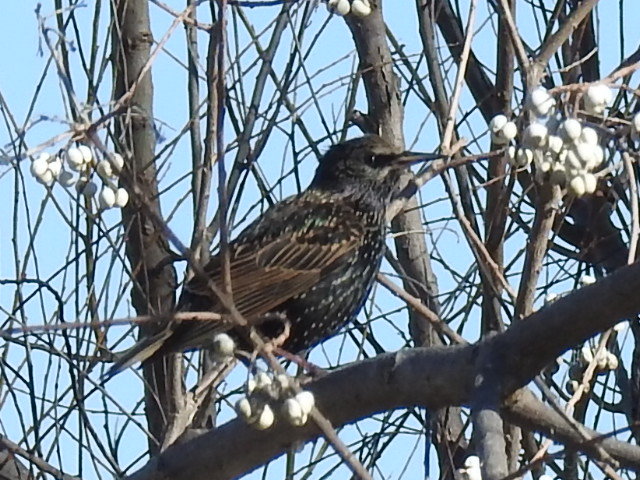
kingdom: Animalia
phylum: Chordata
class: Aves
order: Passeriformes
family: Sturnidae
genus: Sturnus
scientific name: Sturnus vulgaris
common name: Common starling
